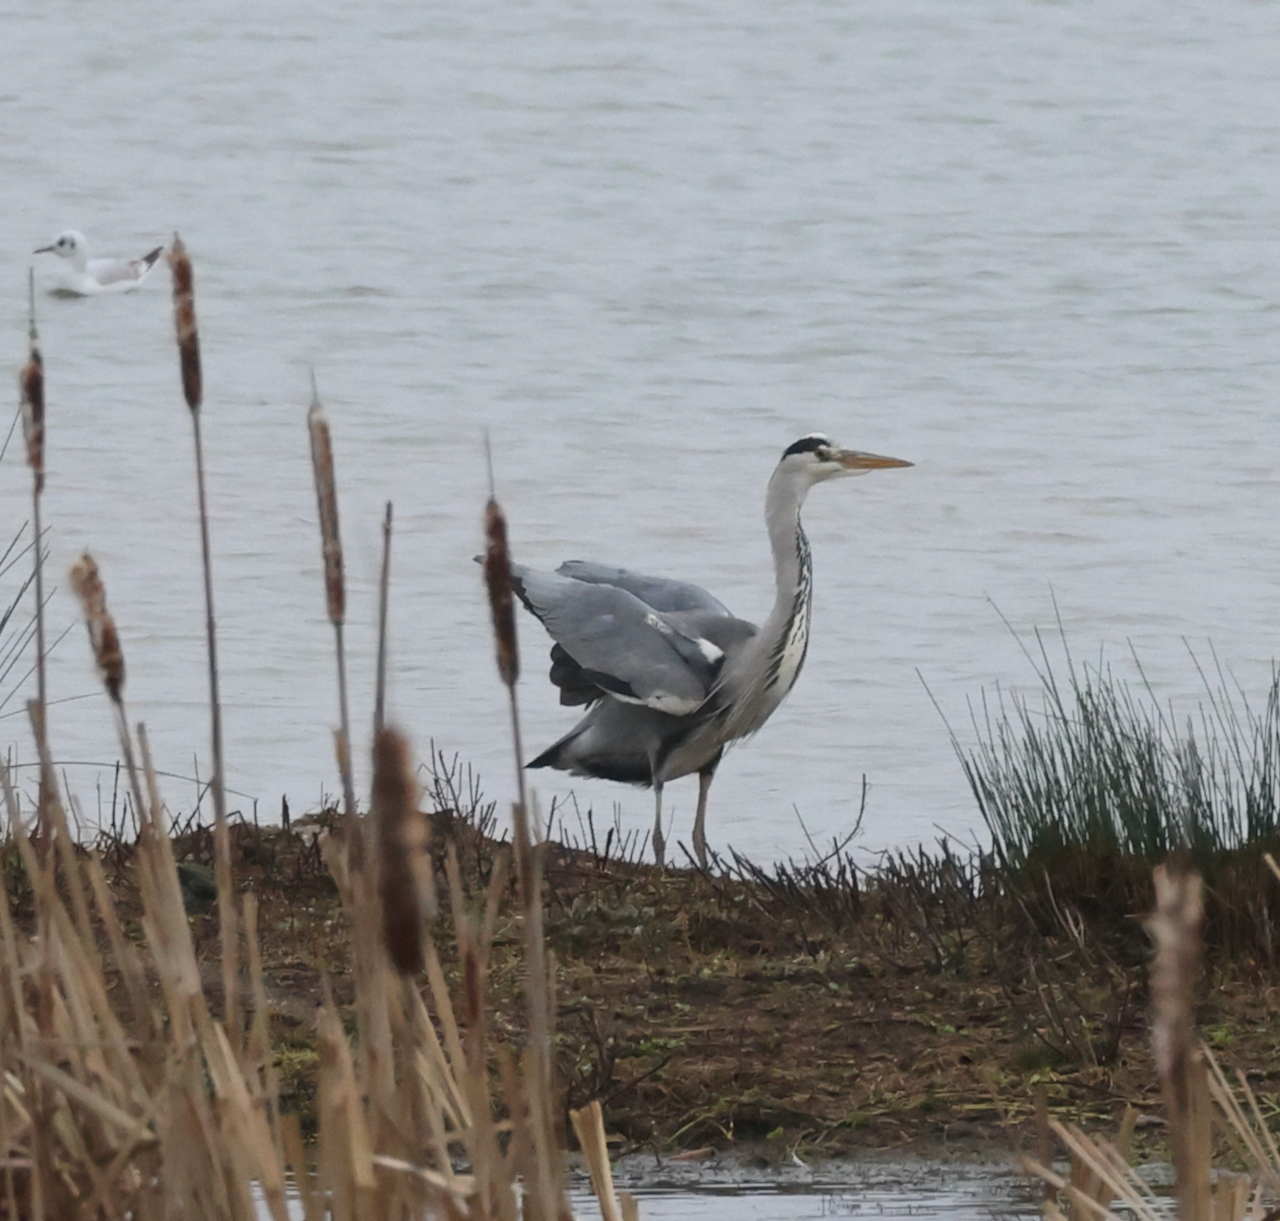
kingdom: Animalia
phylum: Chordata
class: Aves
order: Pelecaniformes
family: Ardeidae
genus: Ardea
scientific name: Ardea cinerea
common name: Grey heron
